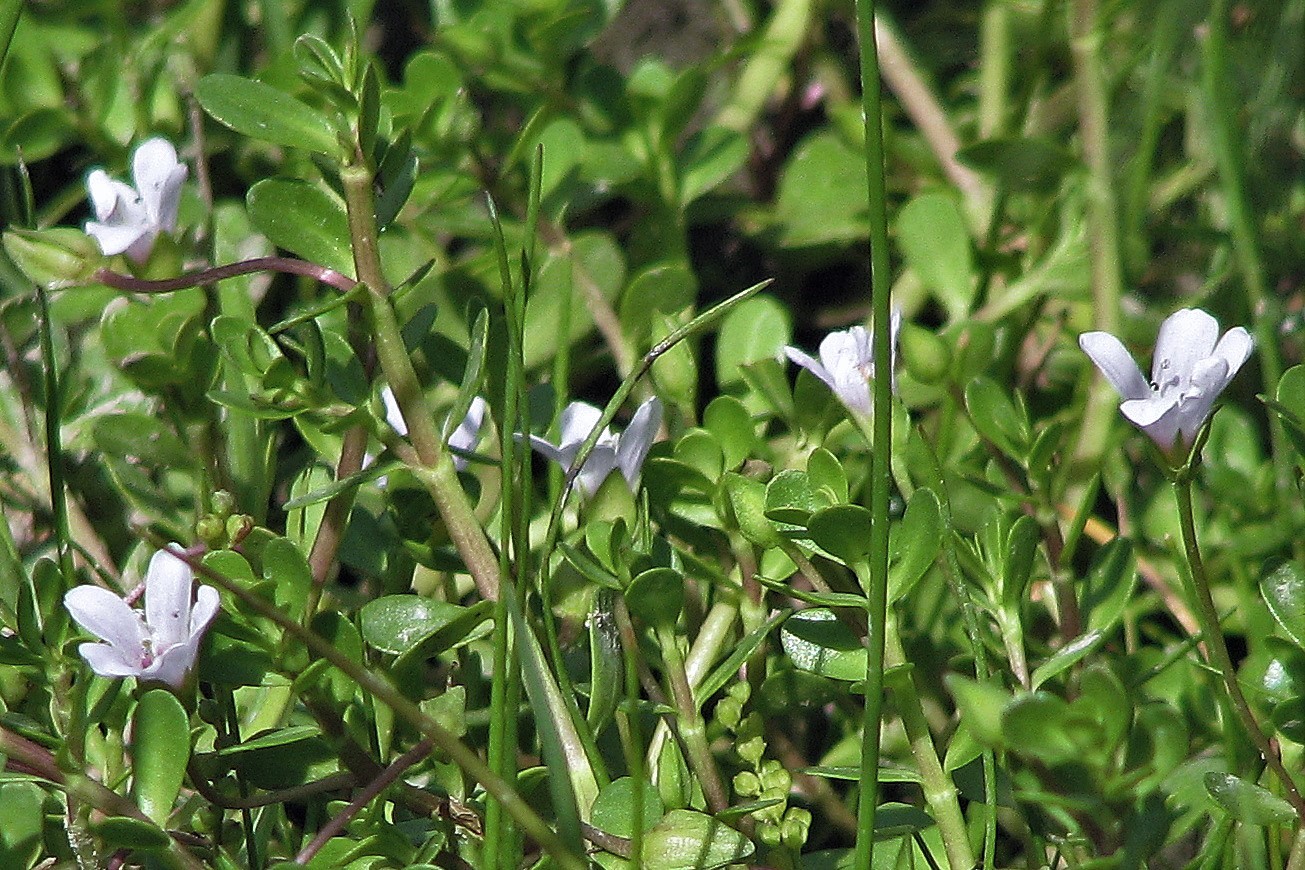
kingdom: Plantae
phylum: Tracheophyta
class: Magnoliopsida
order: Lamiales
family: Plantaginaceae
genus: Bacopa
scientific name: Bacopa monnieri
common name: Indian-pennywort
